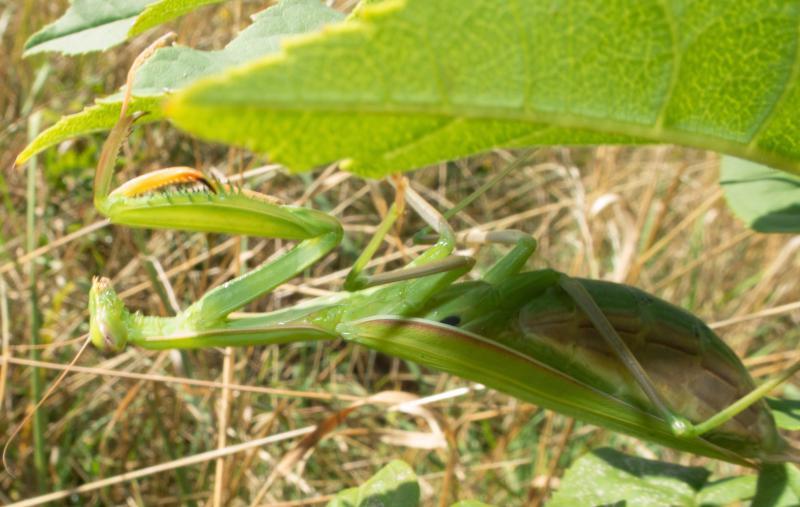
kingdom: Animalia
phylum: Arthropoda
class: Insecta
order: Mantodea
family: Mantidae
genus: Mantis
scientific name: Mantis religiosa
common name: Praying mantis
